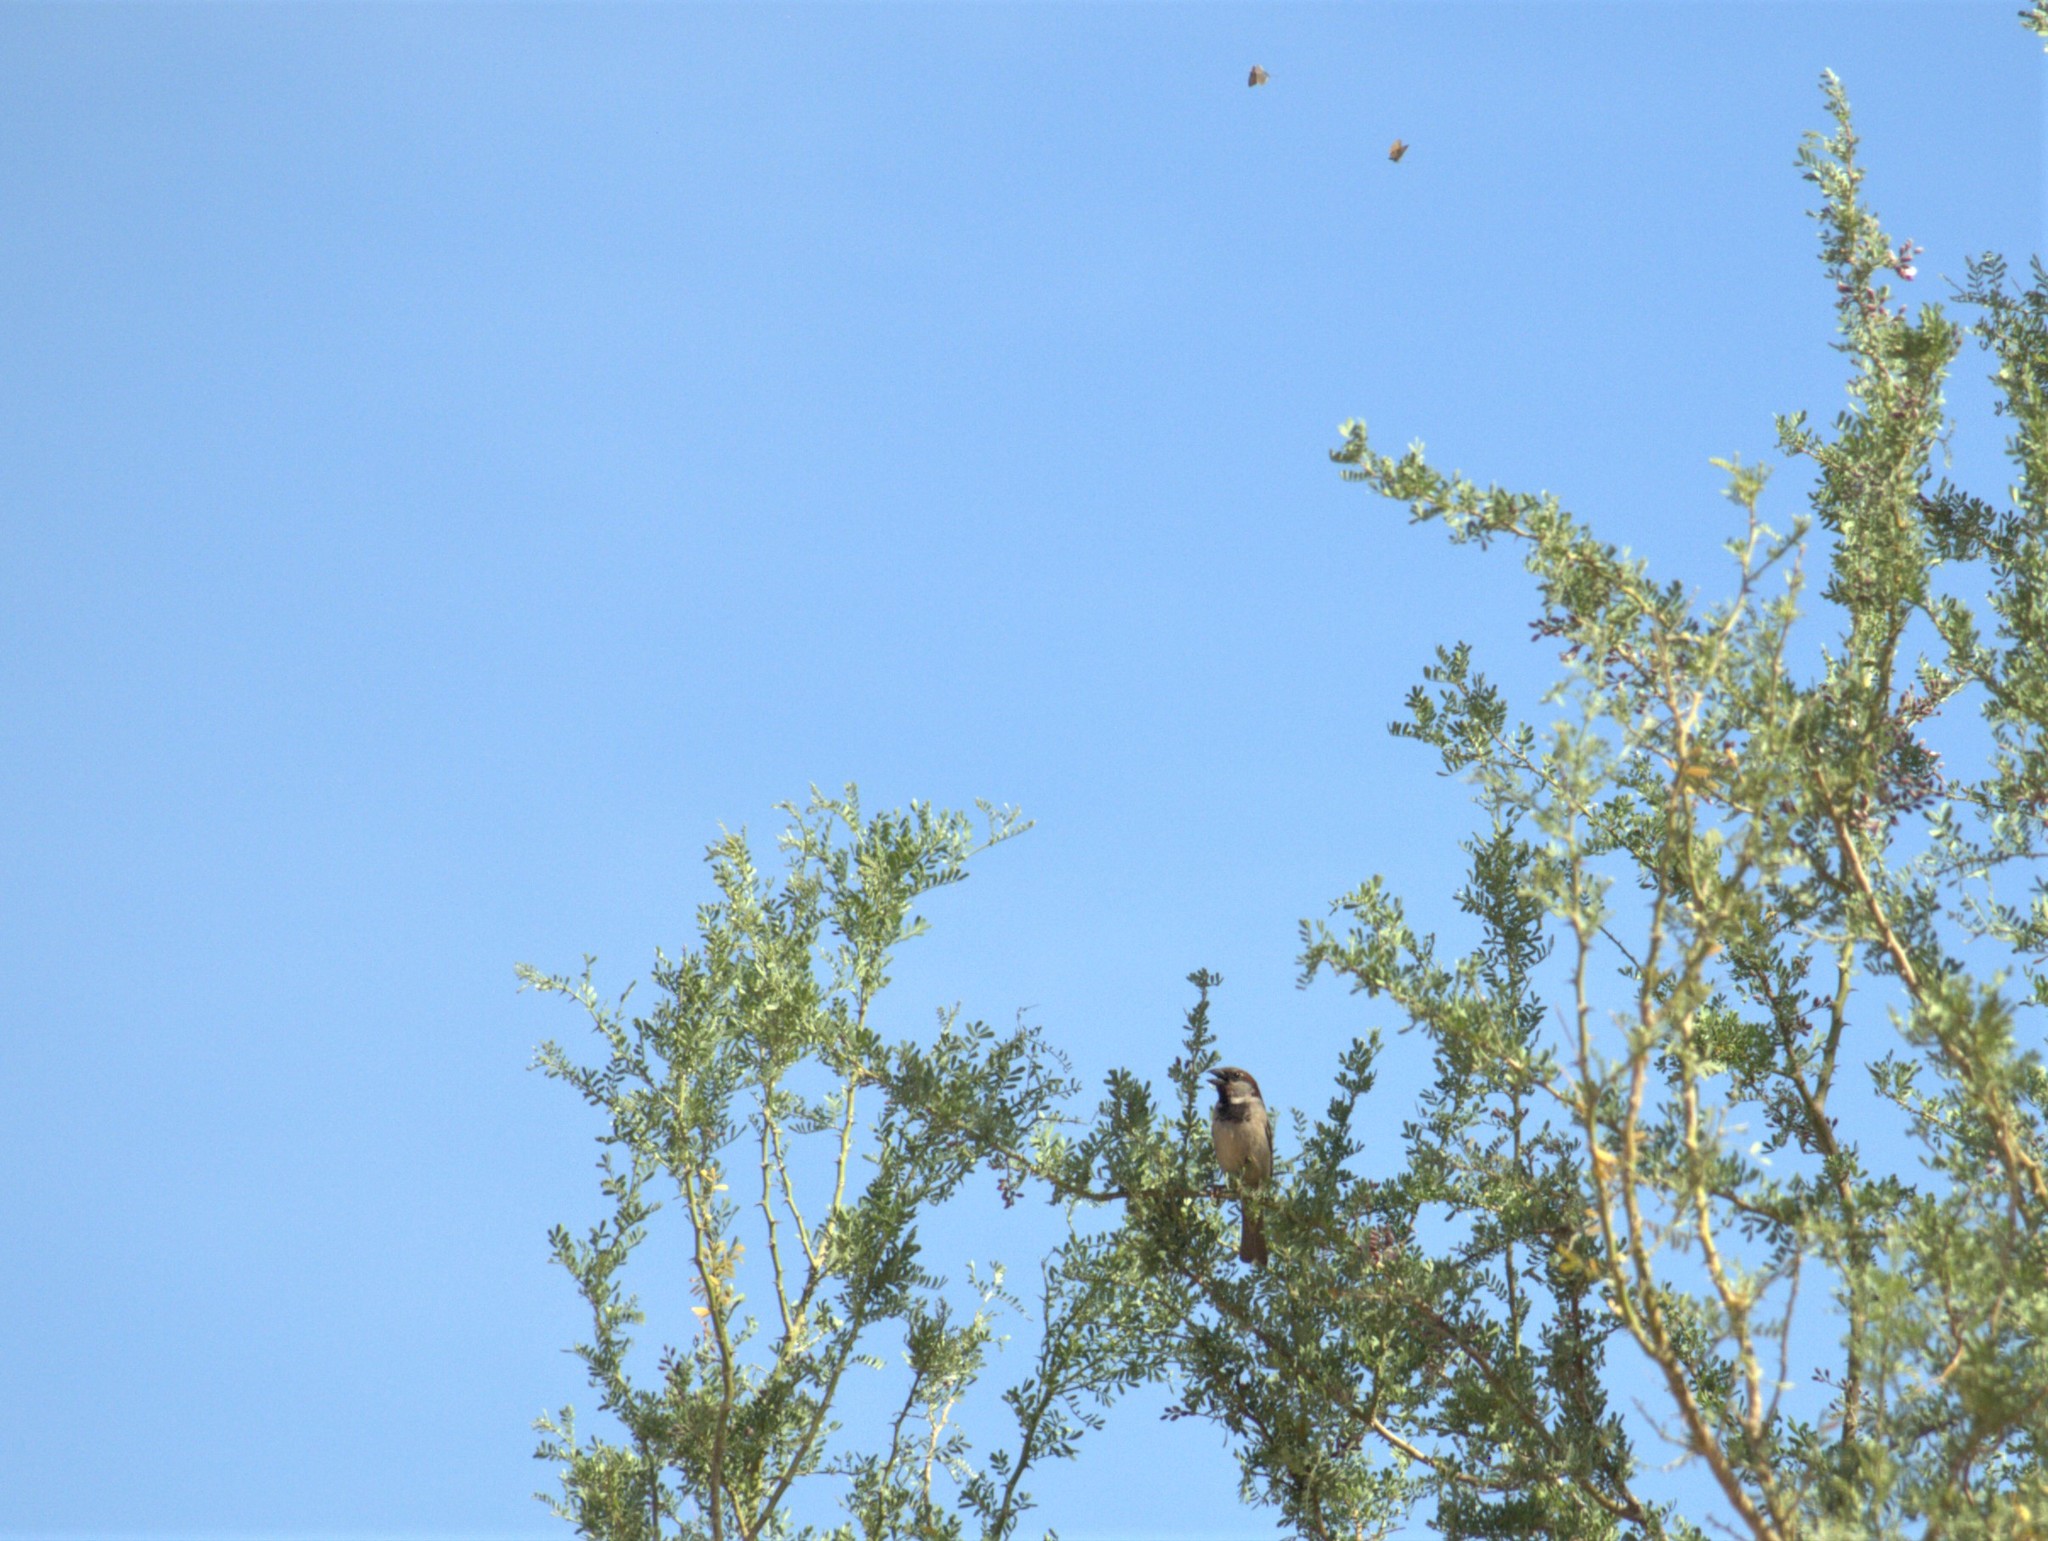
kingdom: Animalia
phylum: Chordata
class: Aves
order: Passeriformes
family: Passeridae
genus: Passer
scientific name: Passer domesticus
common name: House sparrow
